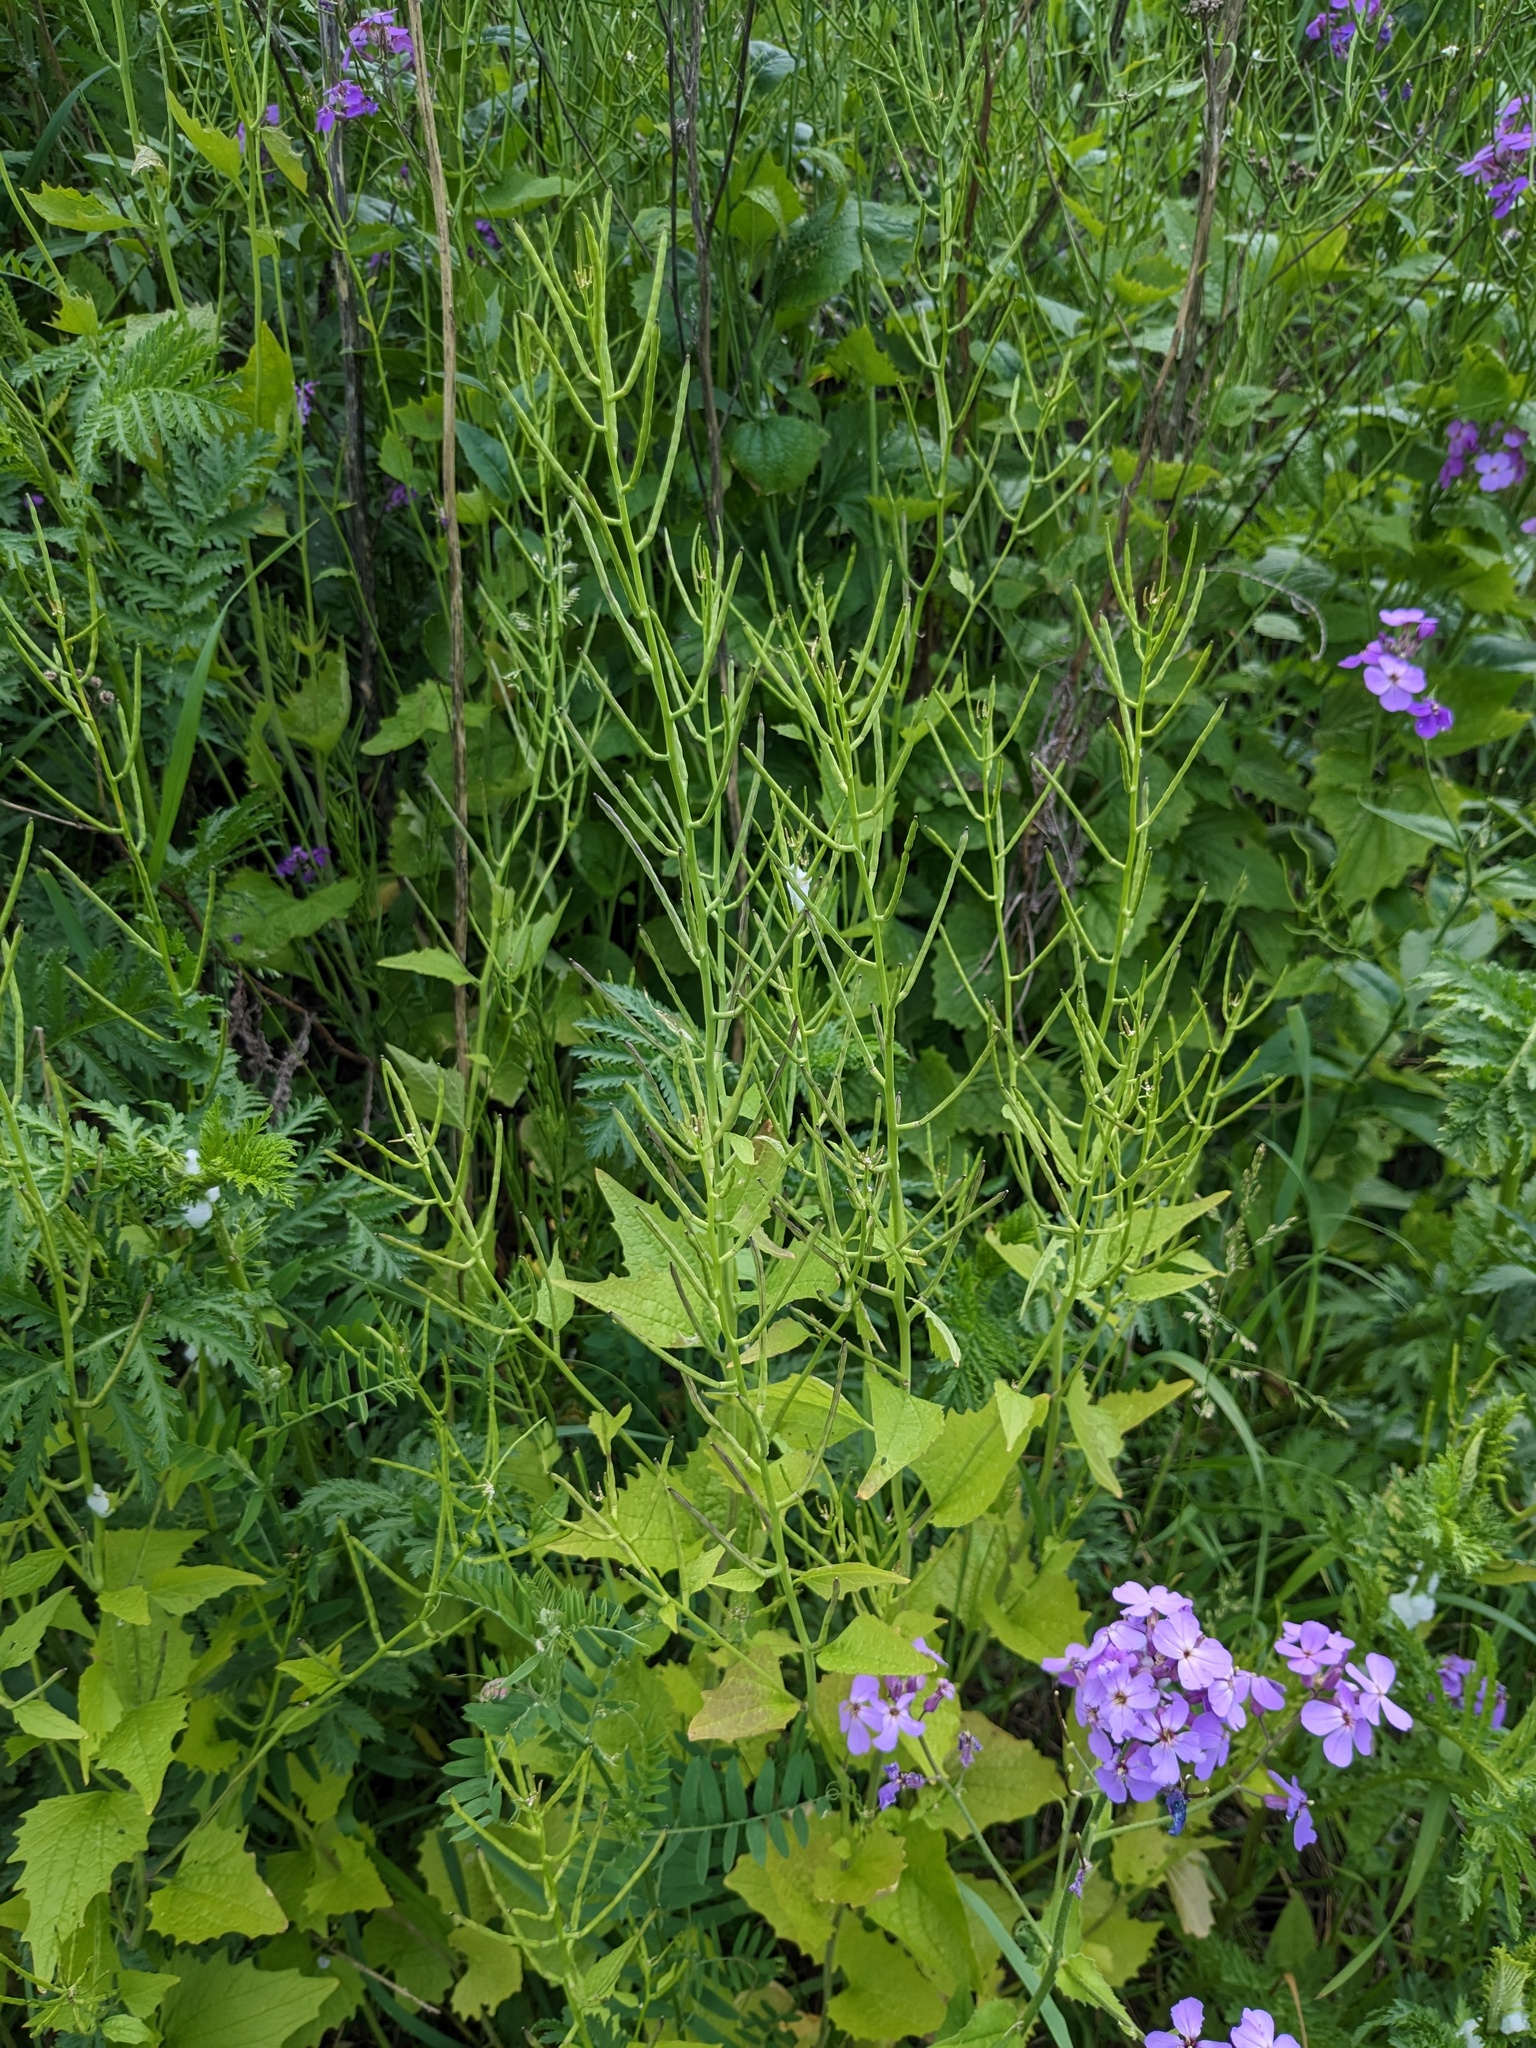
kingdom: Plantae
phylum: Tracheophyta
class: Magnoliopsida
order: Brassicales
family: Brassicaceae
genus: Alliaria
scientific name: Alliaria petiolata
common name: Garlic mustard
